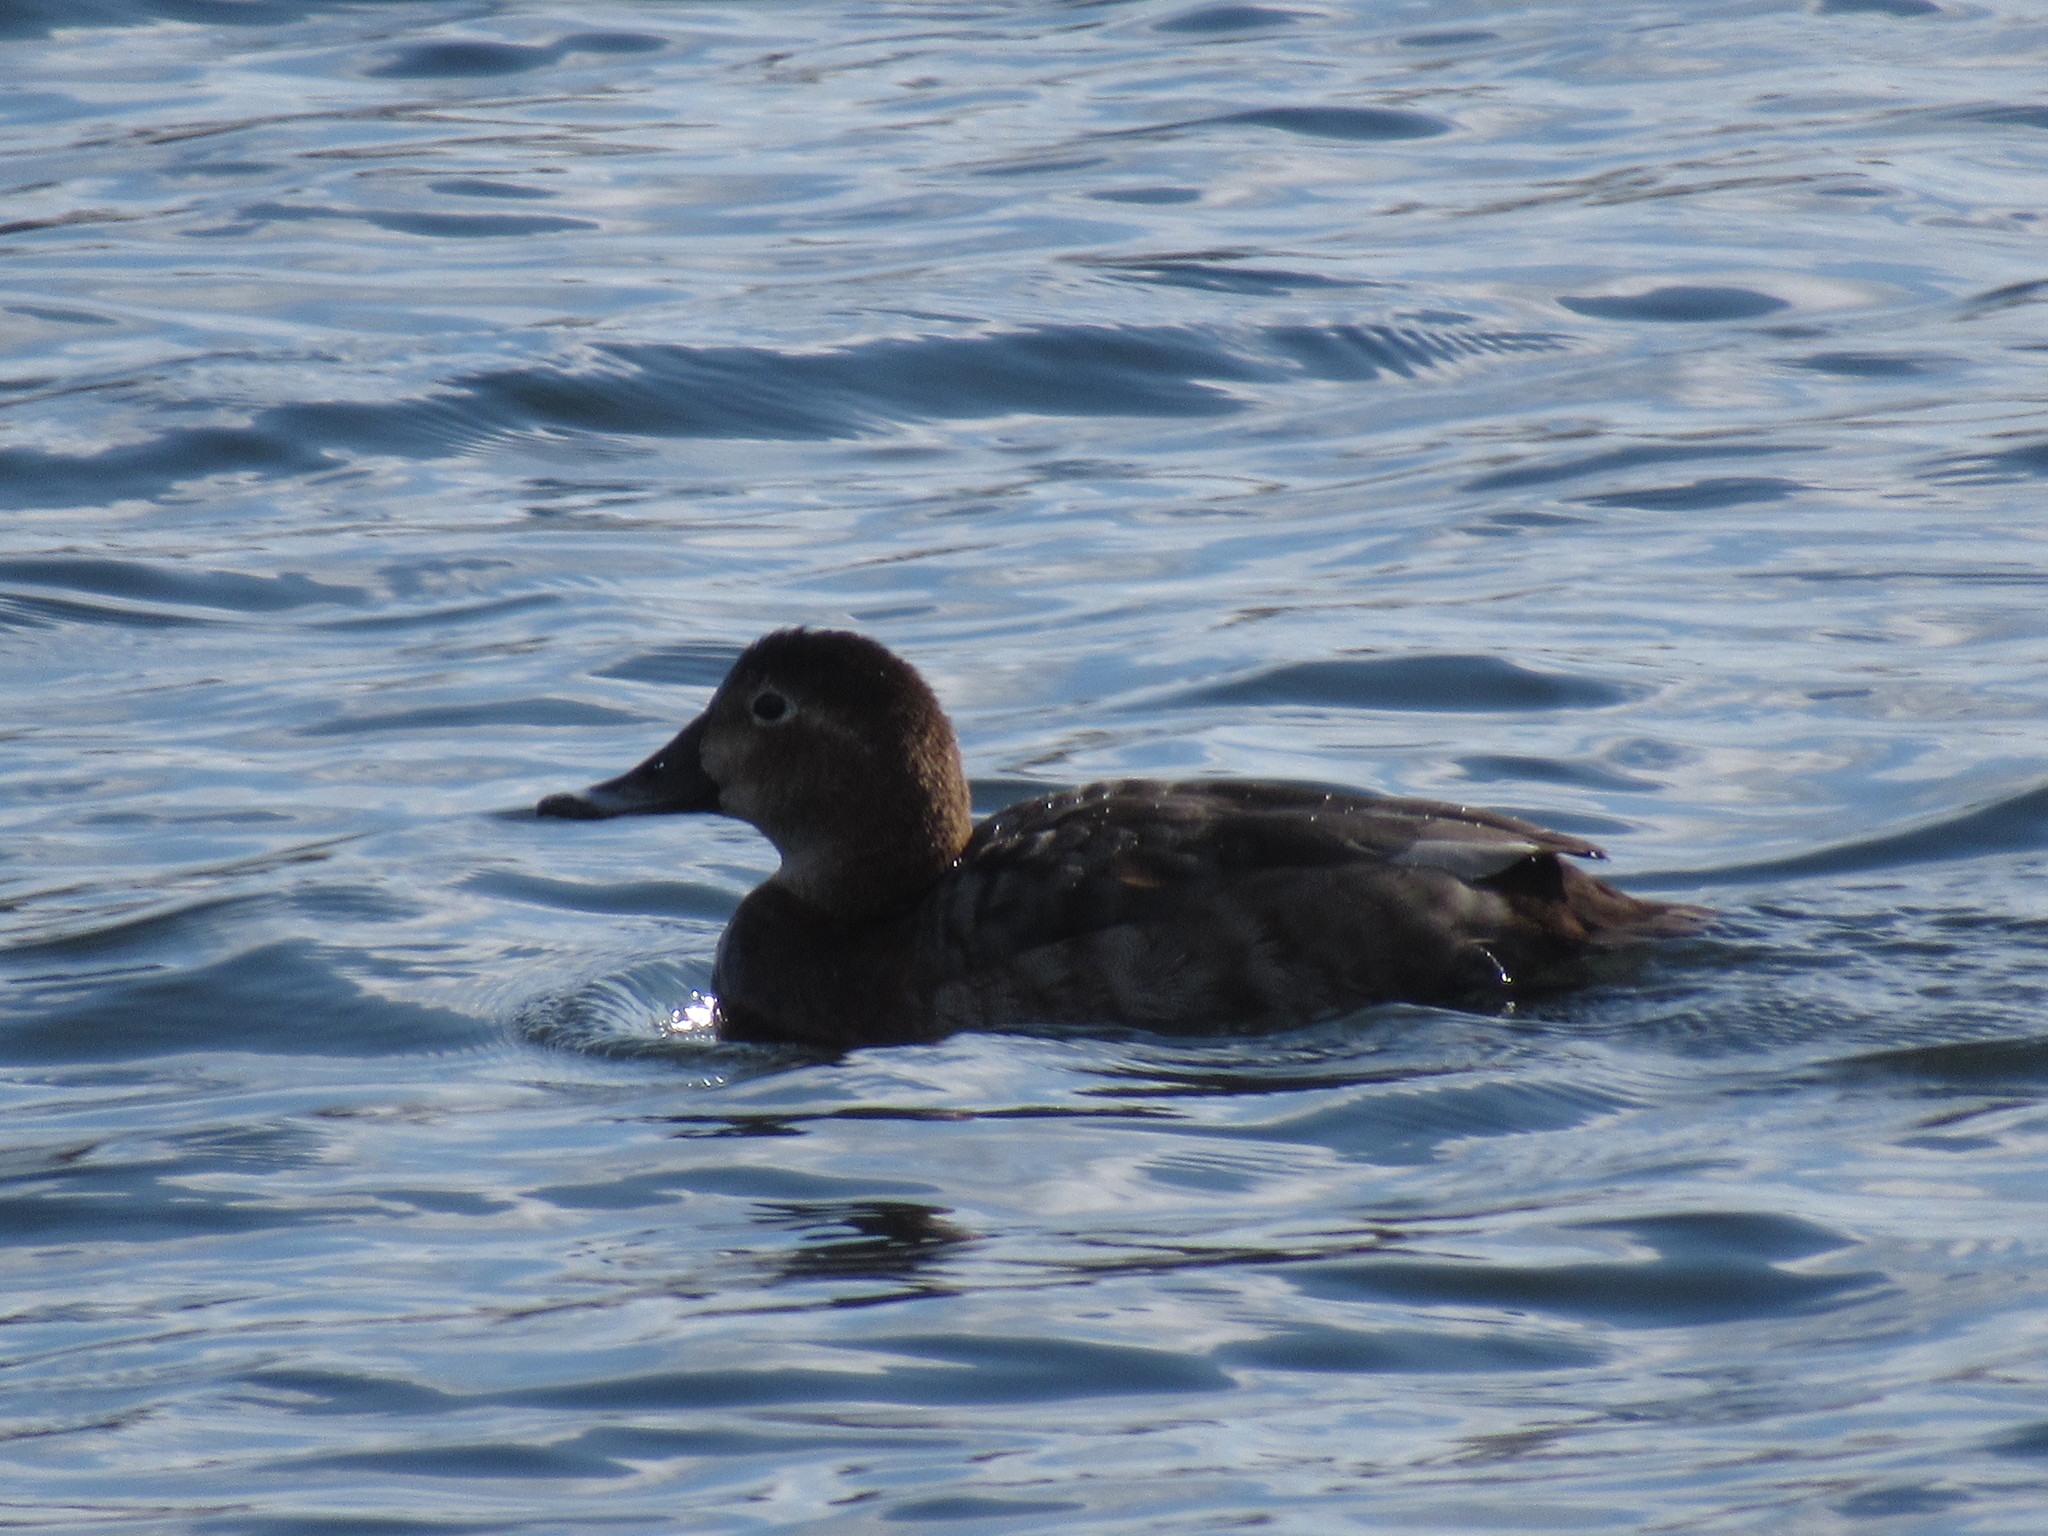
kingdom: Animalia
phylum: Chordata
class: Aves
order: Anseriformes
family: Anatidae
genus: Aythya
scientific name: Aythya ferina
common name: Common pochard
